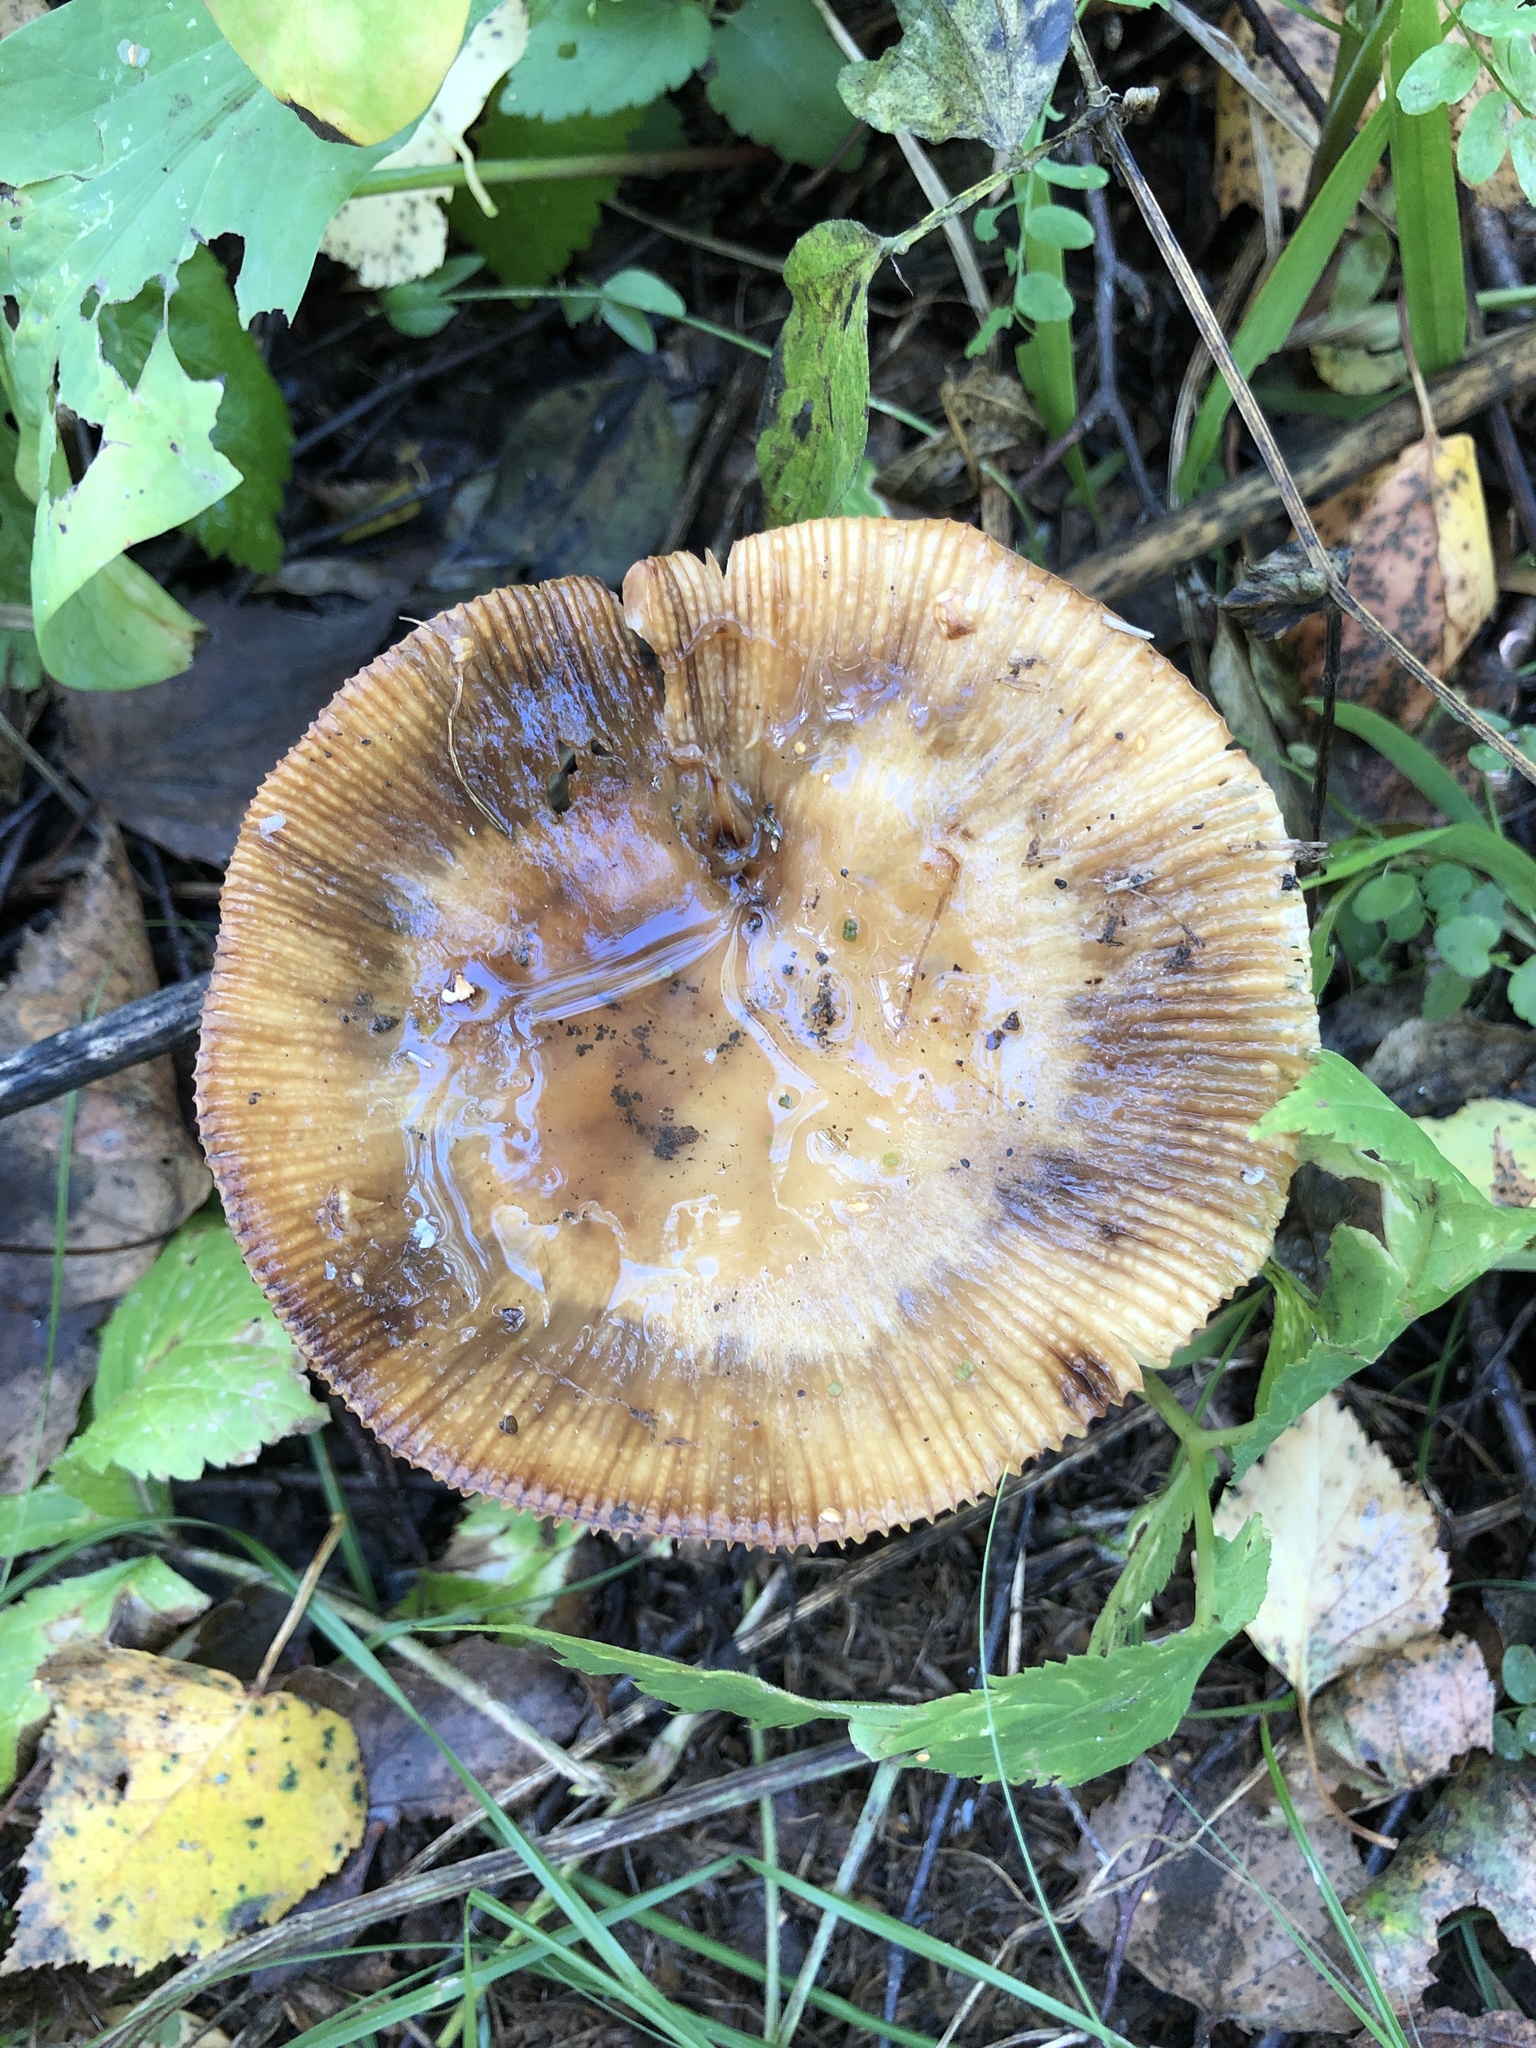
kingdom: Fungi
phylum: Basidiomycota
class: Agaricomycetes
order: Russulales
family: Russulaceae
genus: Russula
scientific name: Russula foetens
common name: Foetid russula
